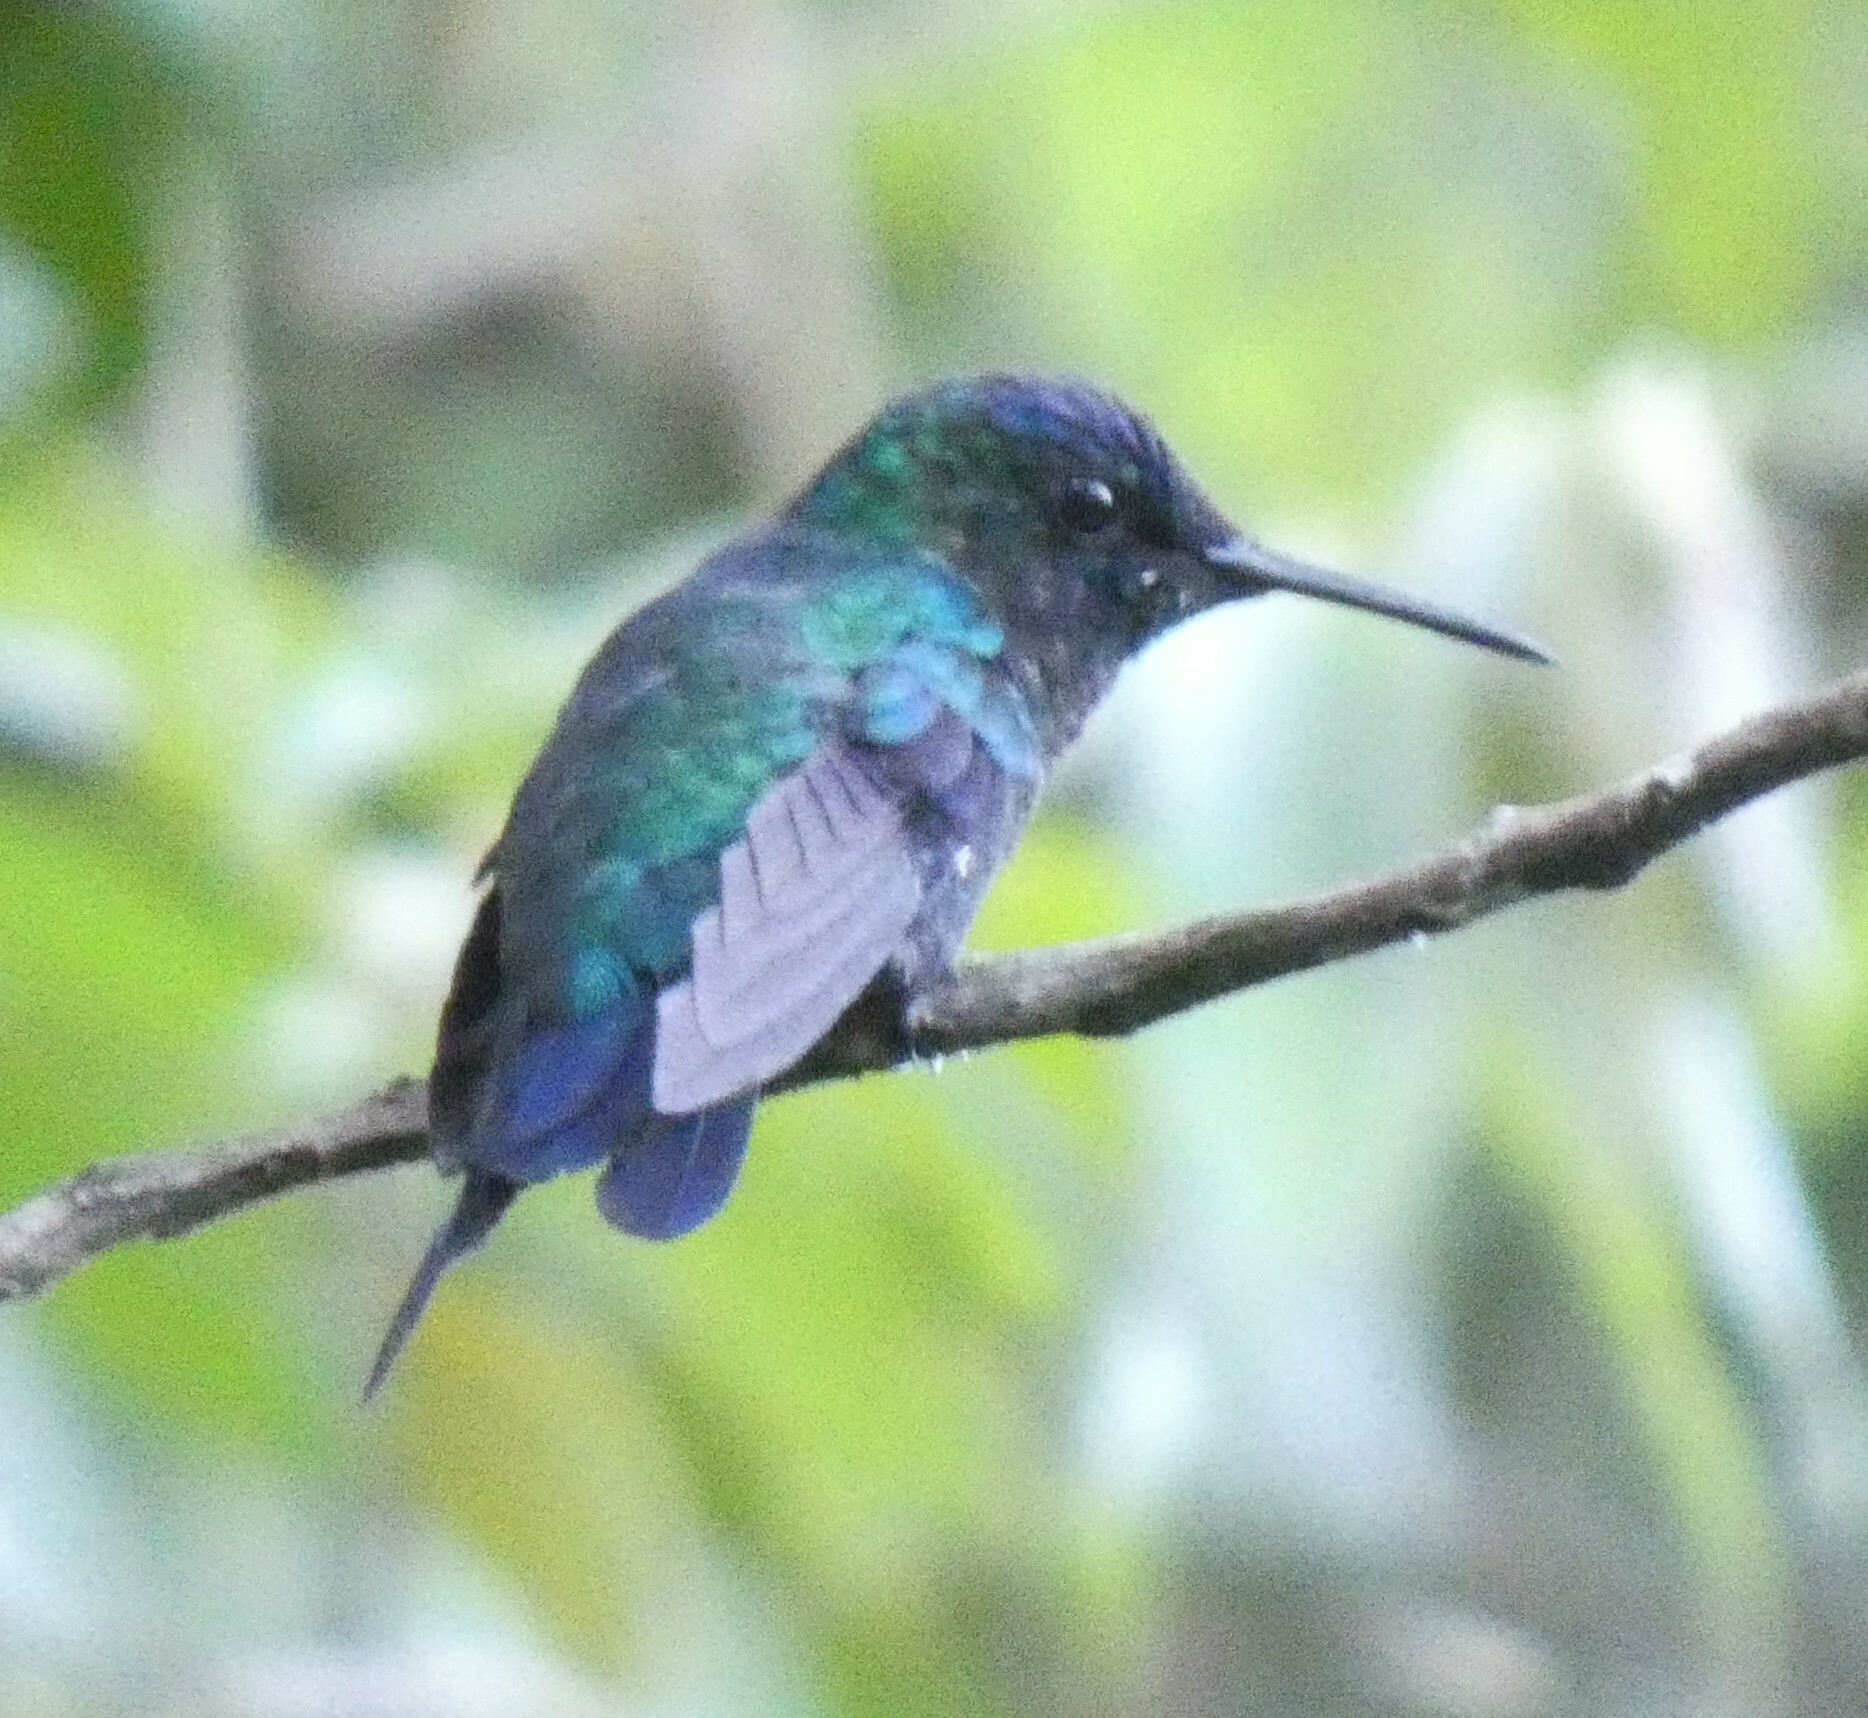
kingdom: Animalia
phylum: Chordata
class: Aves
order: Apodiformes
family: Trochilidae
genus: Thalurania
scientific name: Thalurania glaucopis
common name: Violet-capped woodnymph
